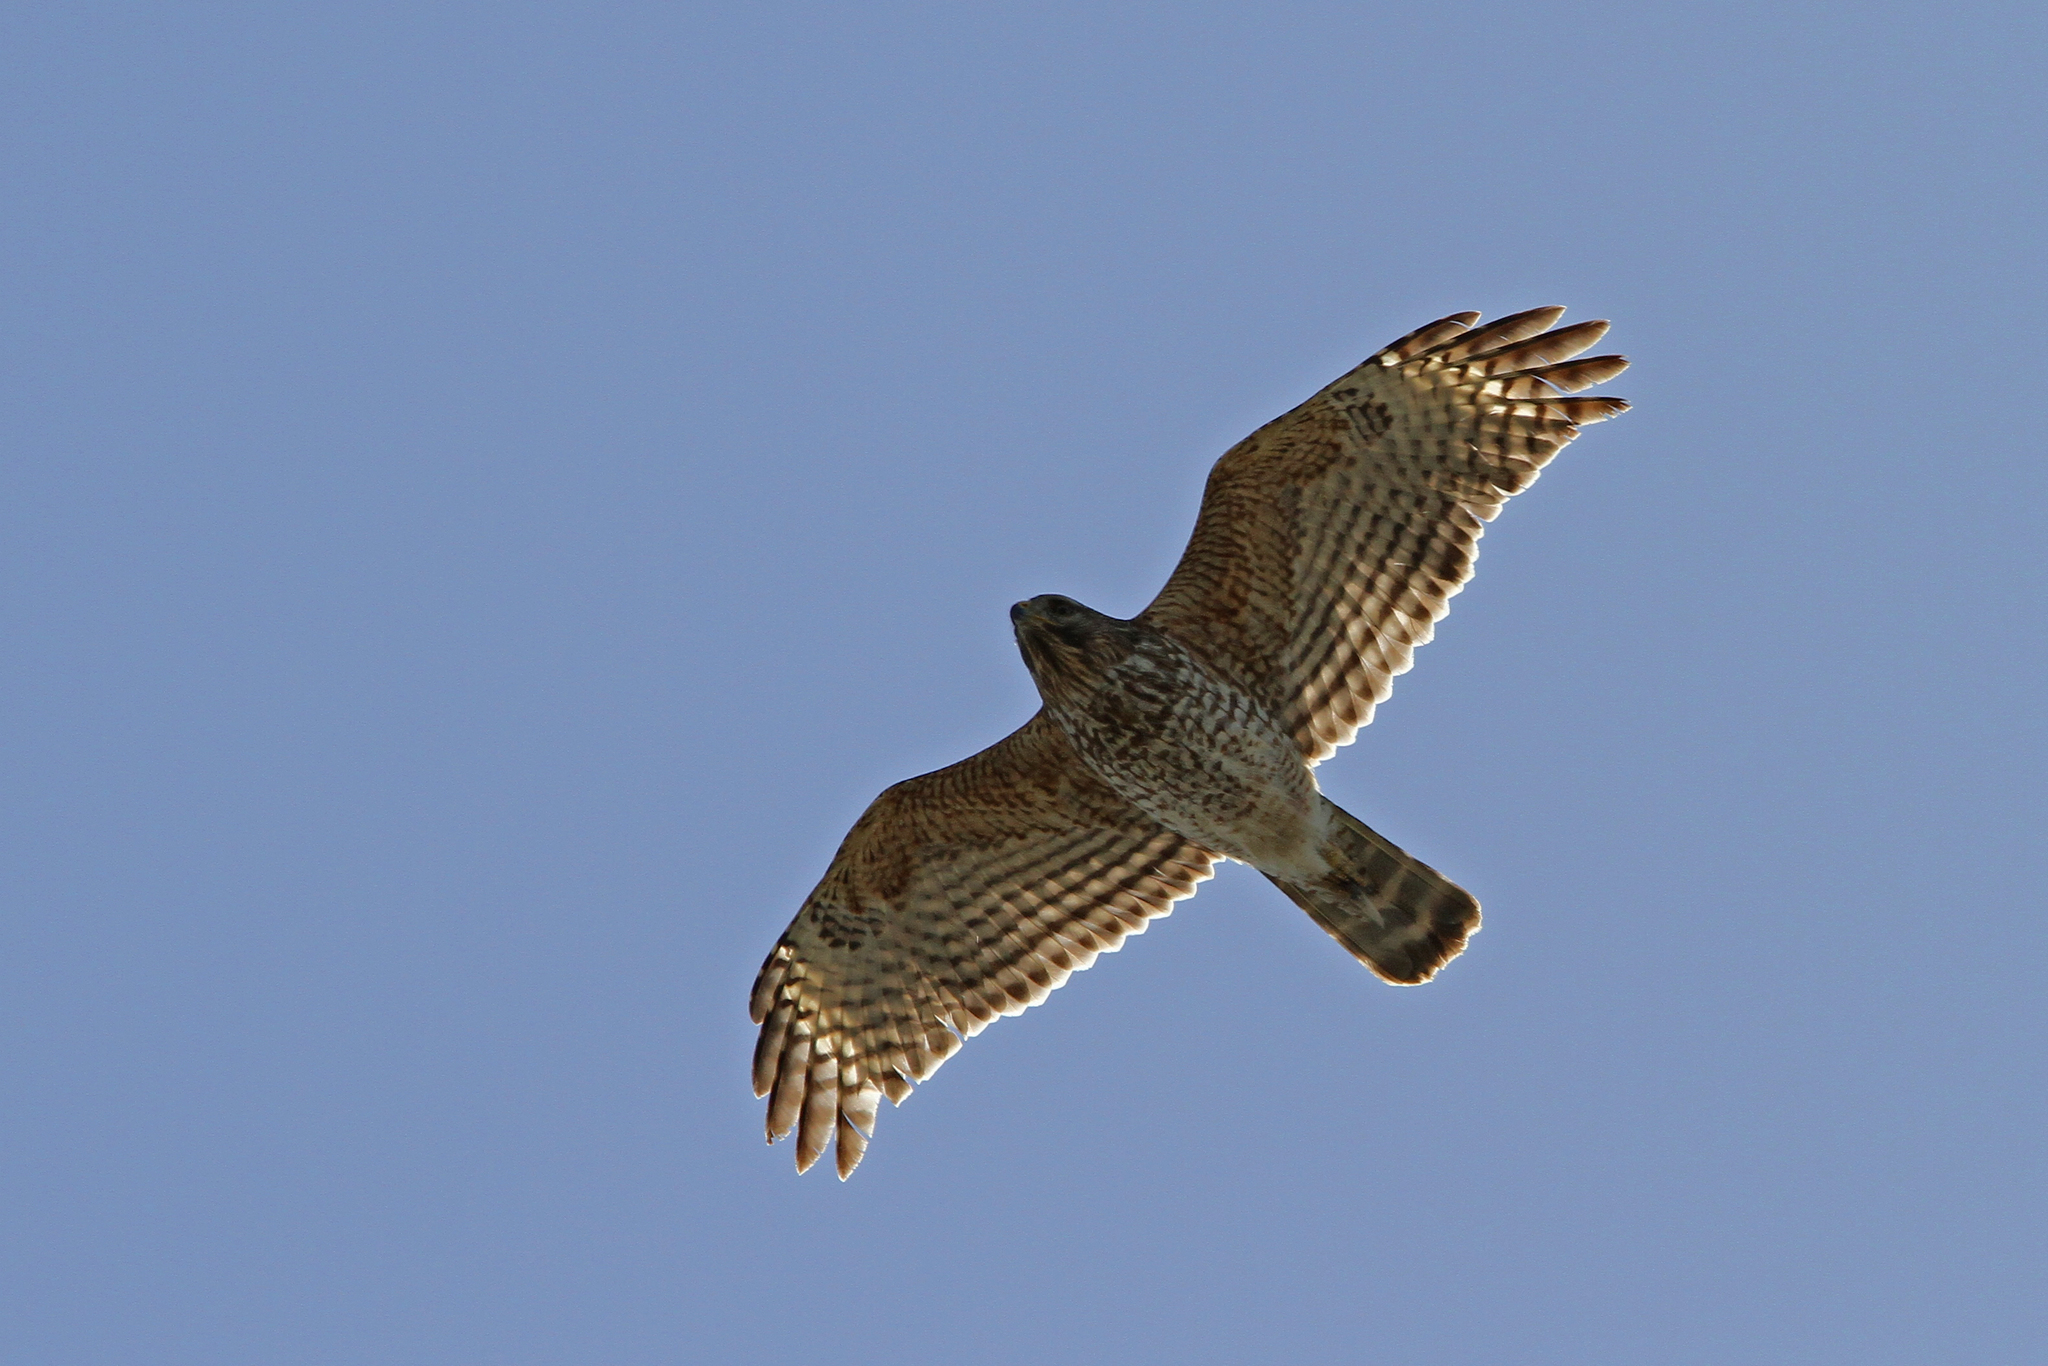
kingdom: Animalia
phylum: Chordata
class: Aves
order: Accipitriformes
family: Accipitridae
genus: Buteo
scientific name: Buteo lineatus
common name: Red-shouldered hawk
